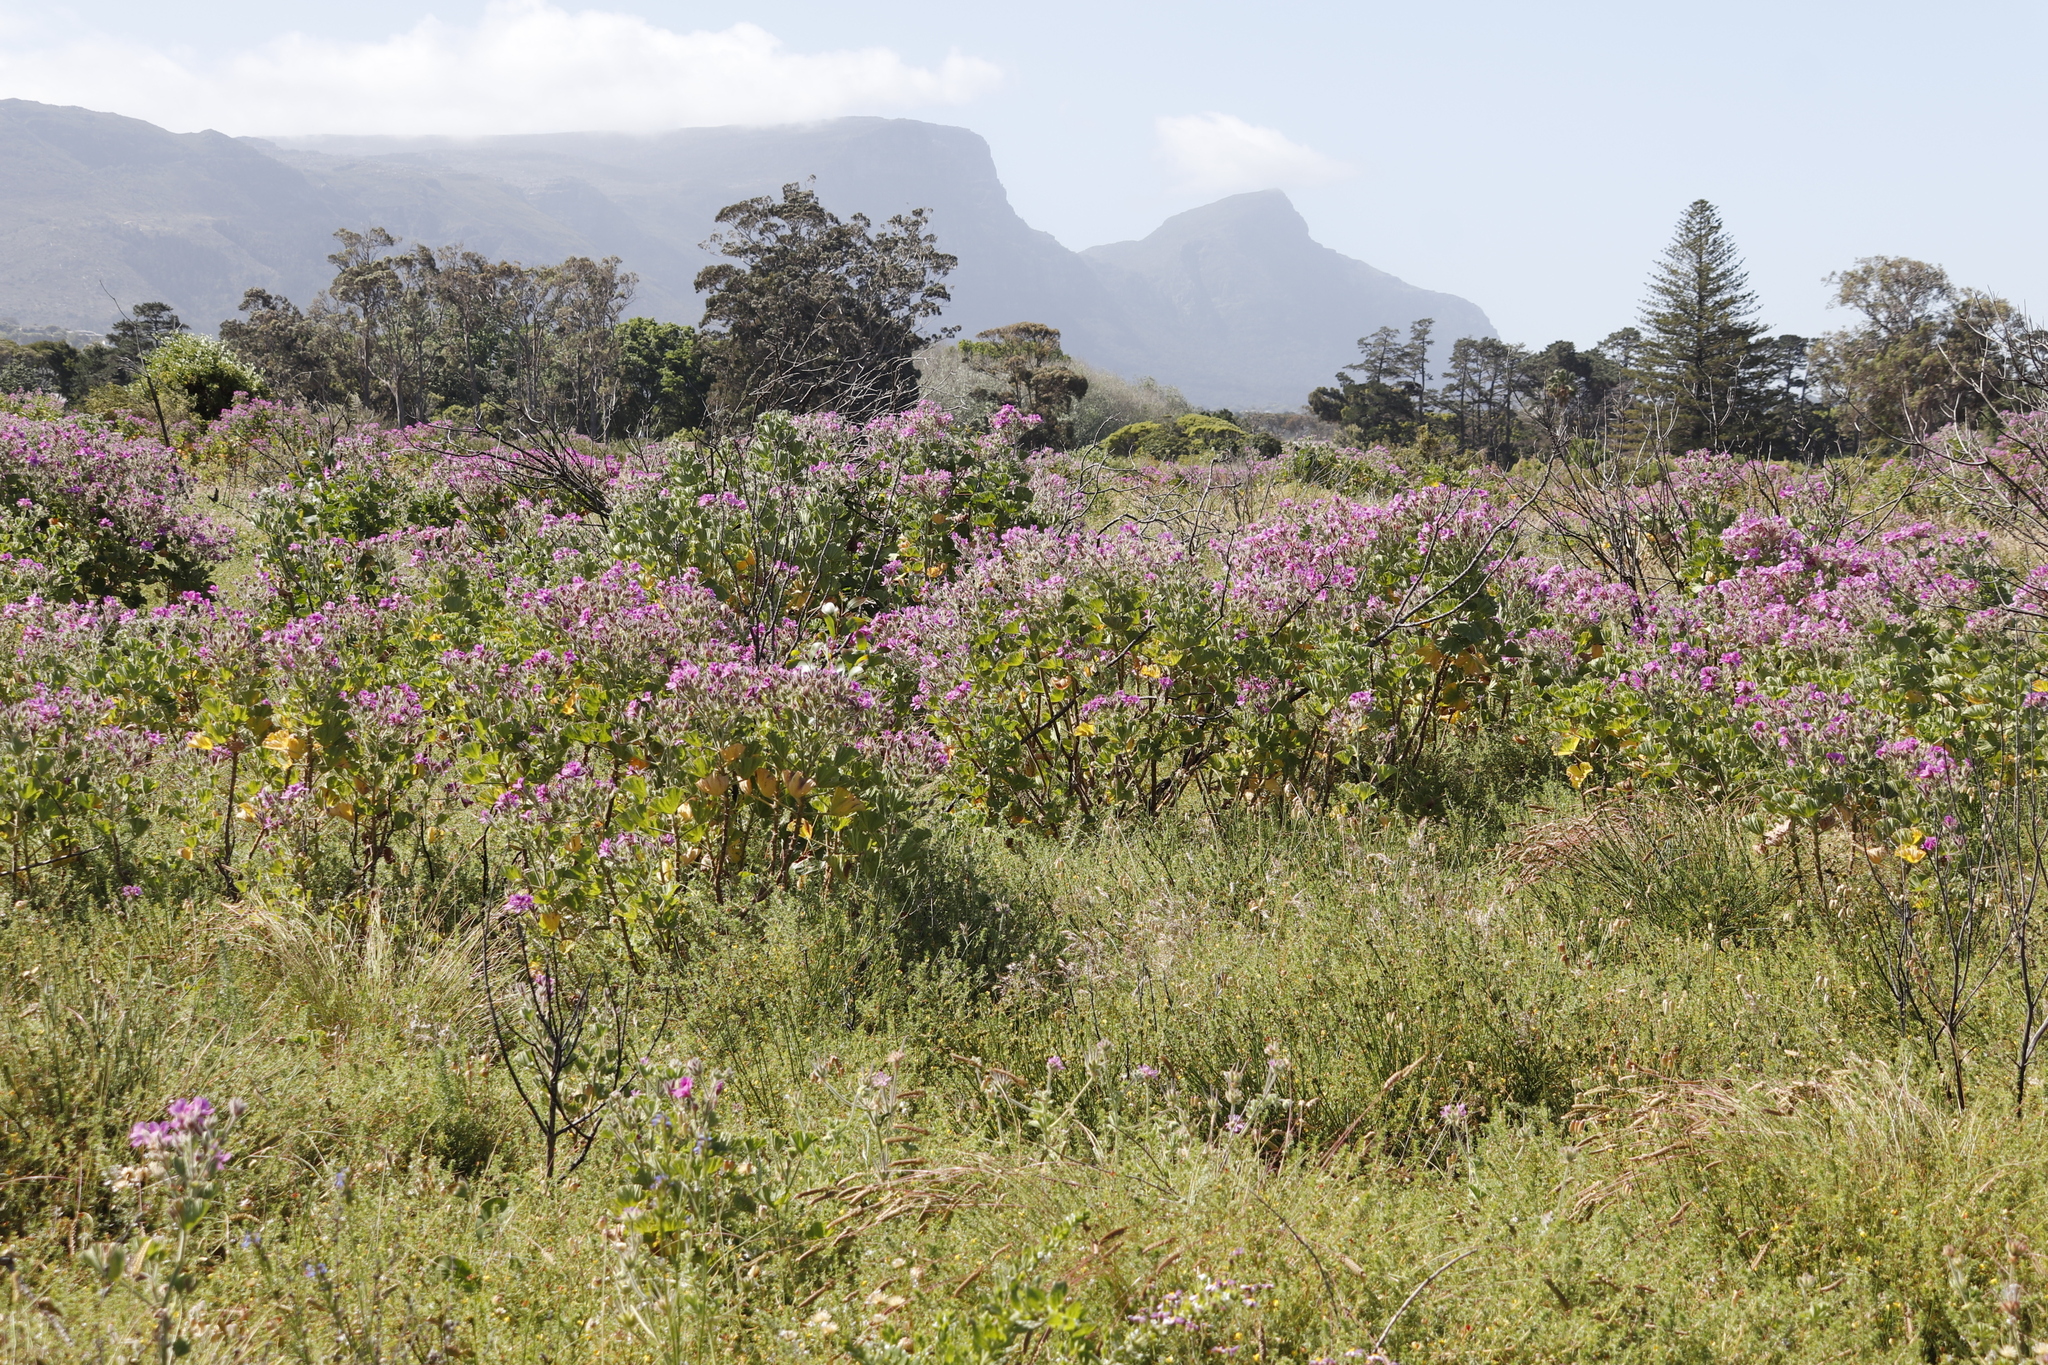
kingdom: Plantae
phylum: Tracheophyta
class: Magnoliopsida
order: Geraniales
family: Geraniaceae
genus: Pelargonium
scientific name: Pelargonium cucullatum
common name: Tree pelargonium
